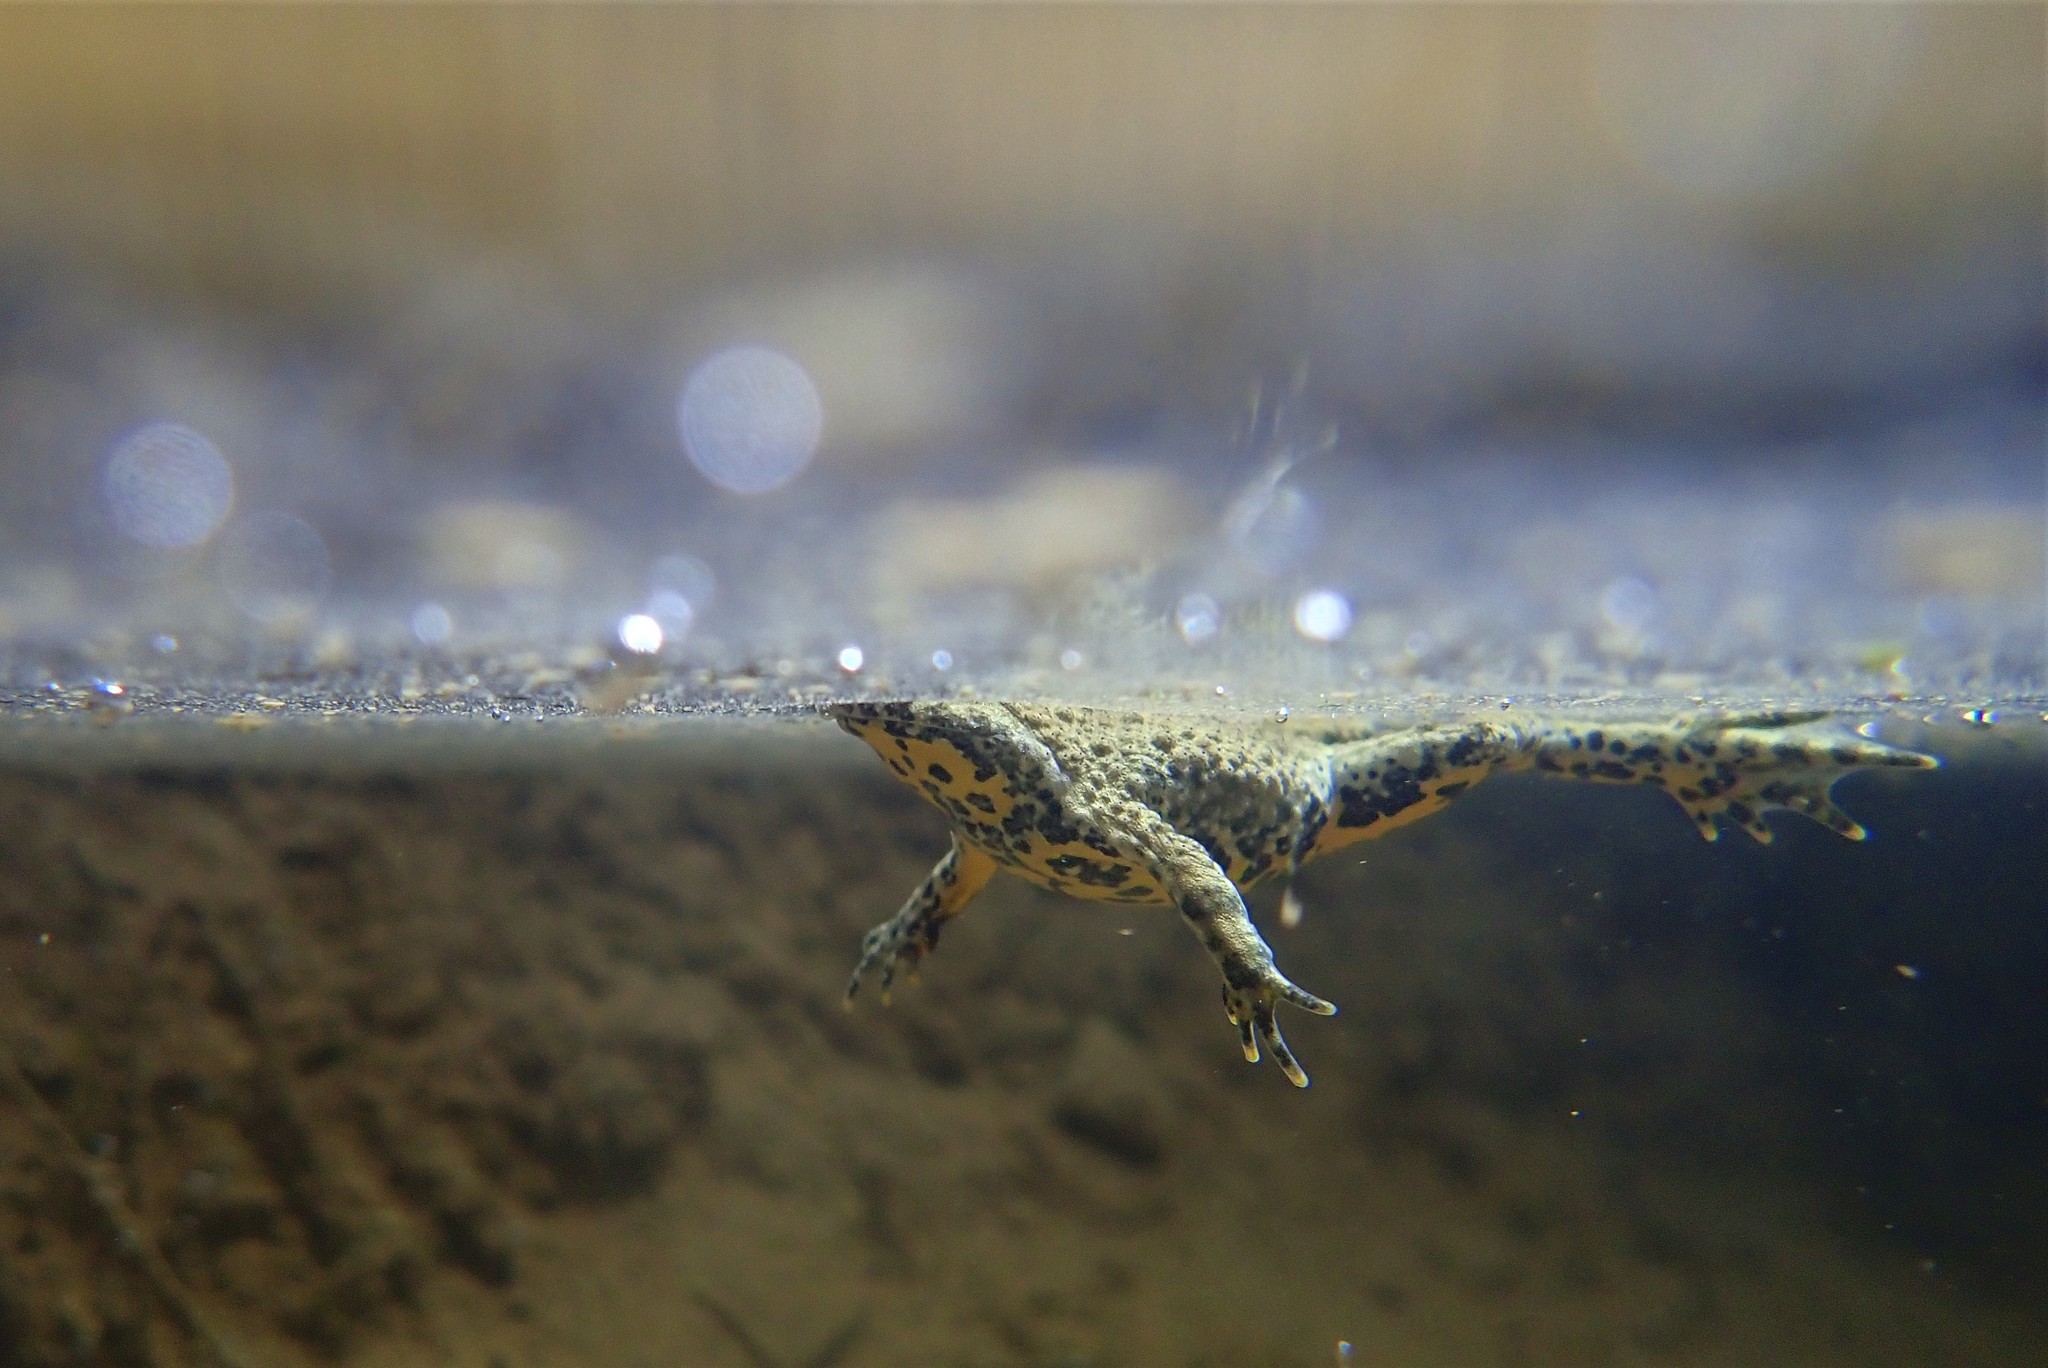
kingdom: Animalia
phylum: Chordata
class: Amphibia
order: Anura
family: Bombinatoridae
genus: Bombina
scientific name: Bombina variegata
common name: Yellow-bellied toad
